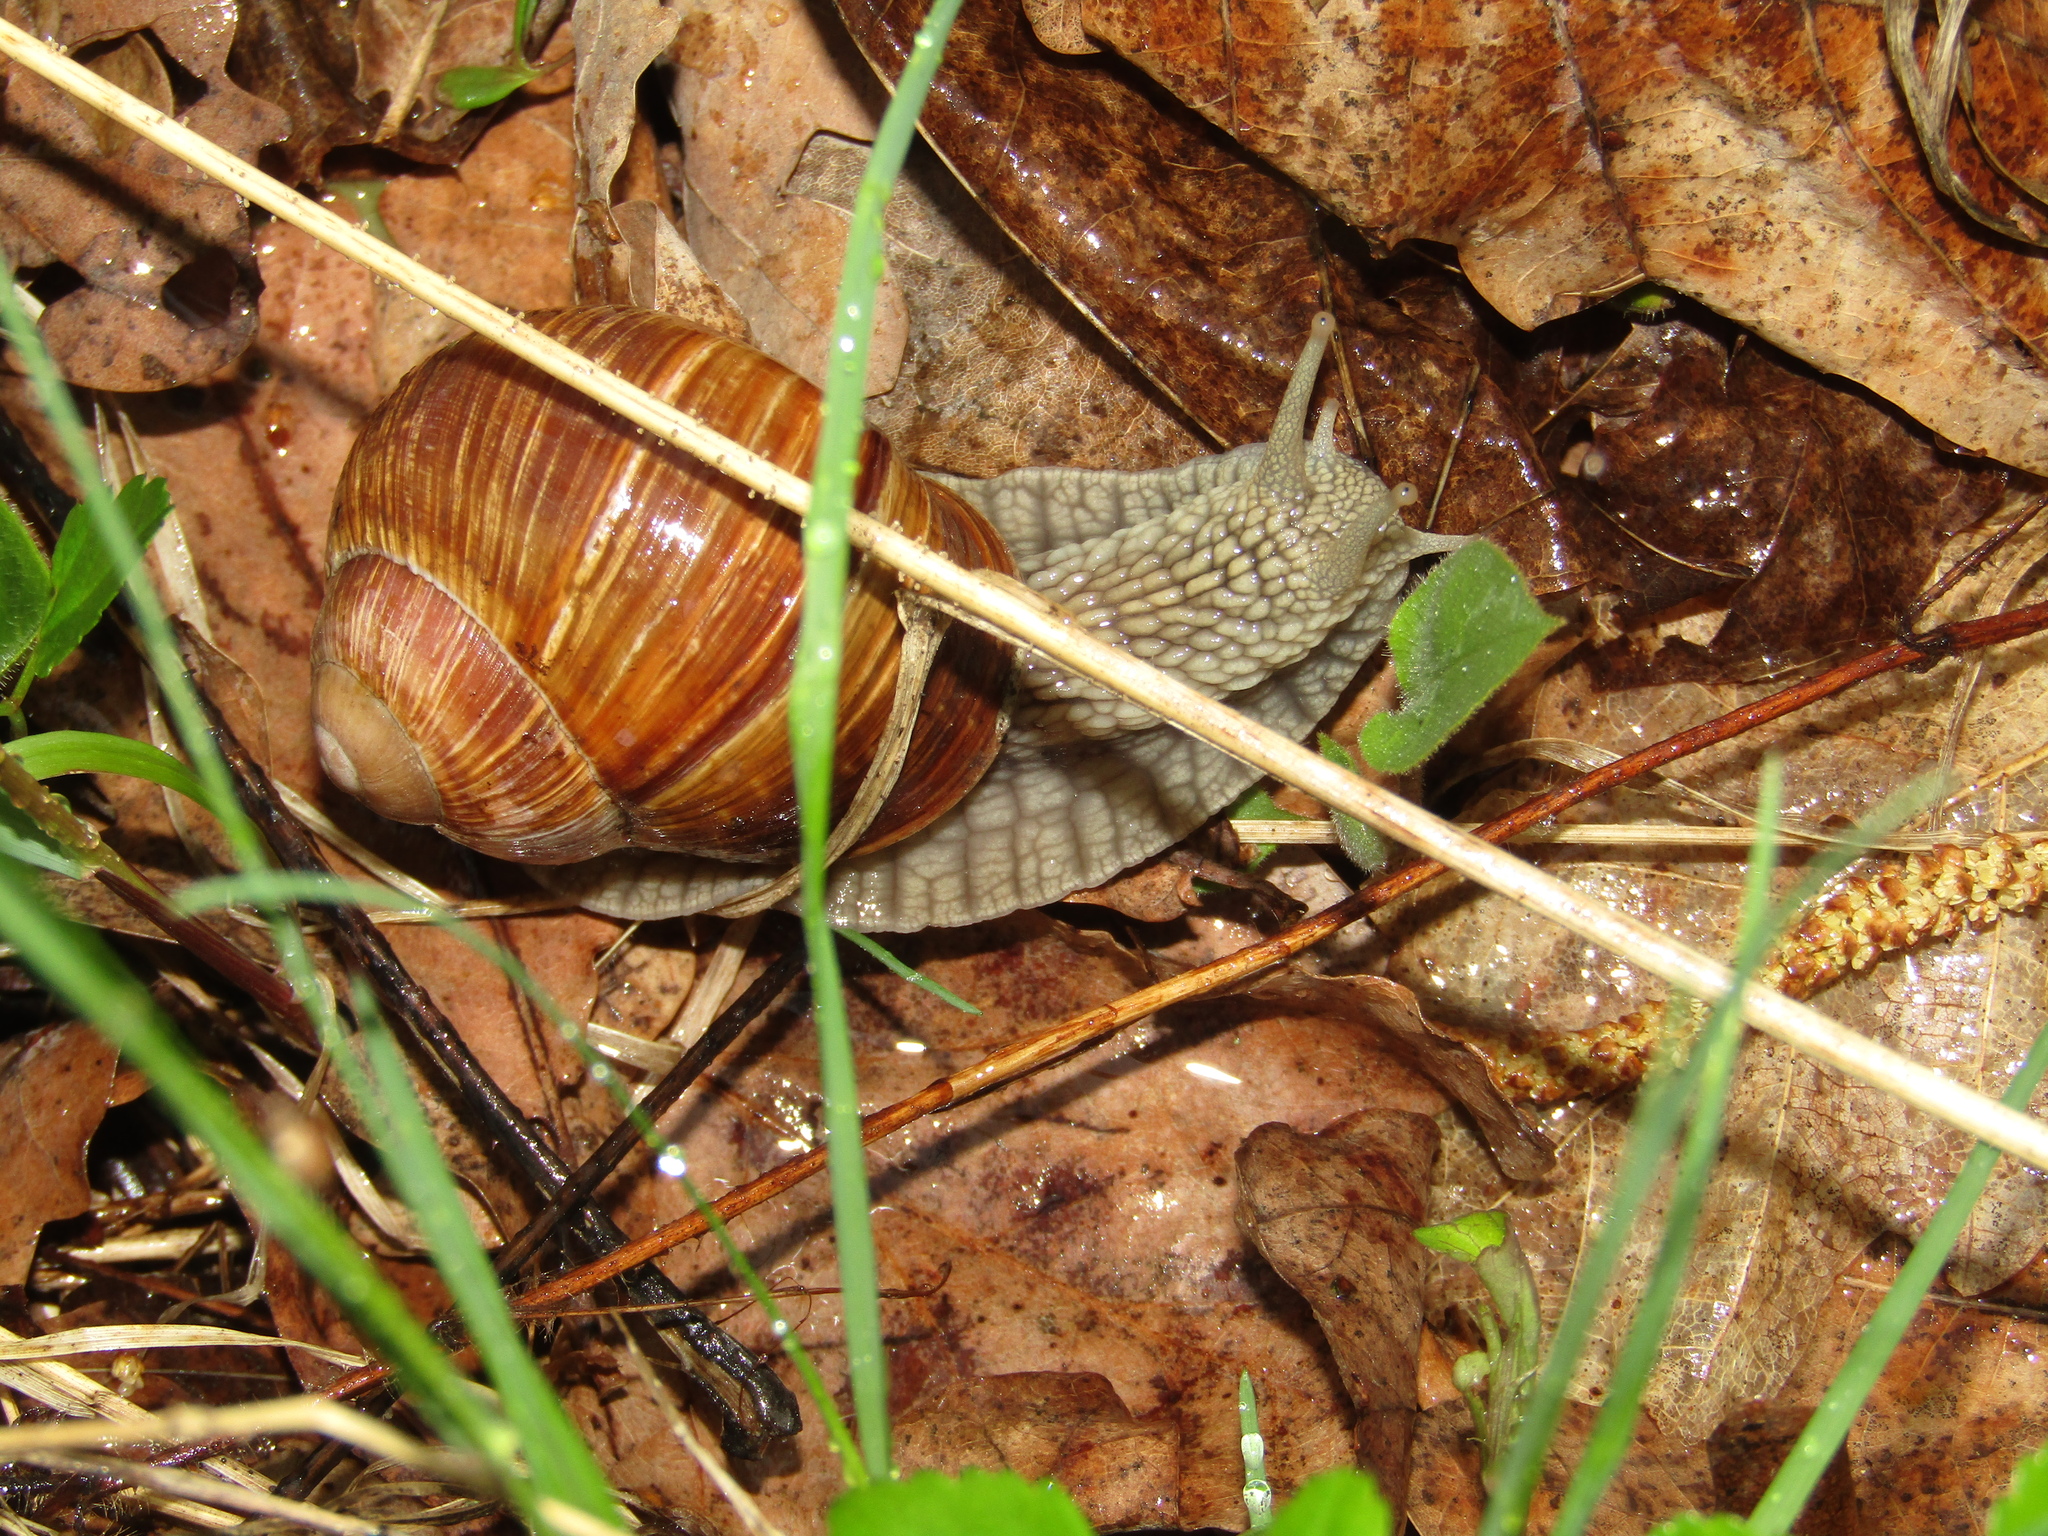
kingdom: Animalia
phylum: Mollusca
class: Gastropoda
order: Stylommatophora
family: Helicidae
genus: Helix
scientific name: Helix pomatia
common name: Roman snail
